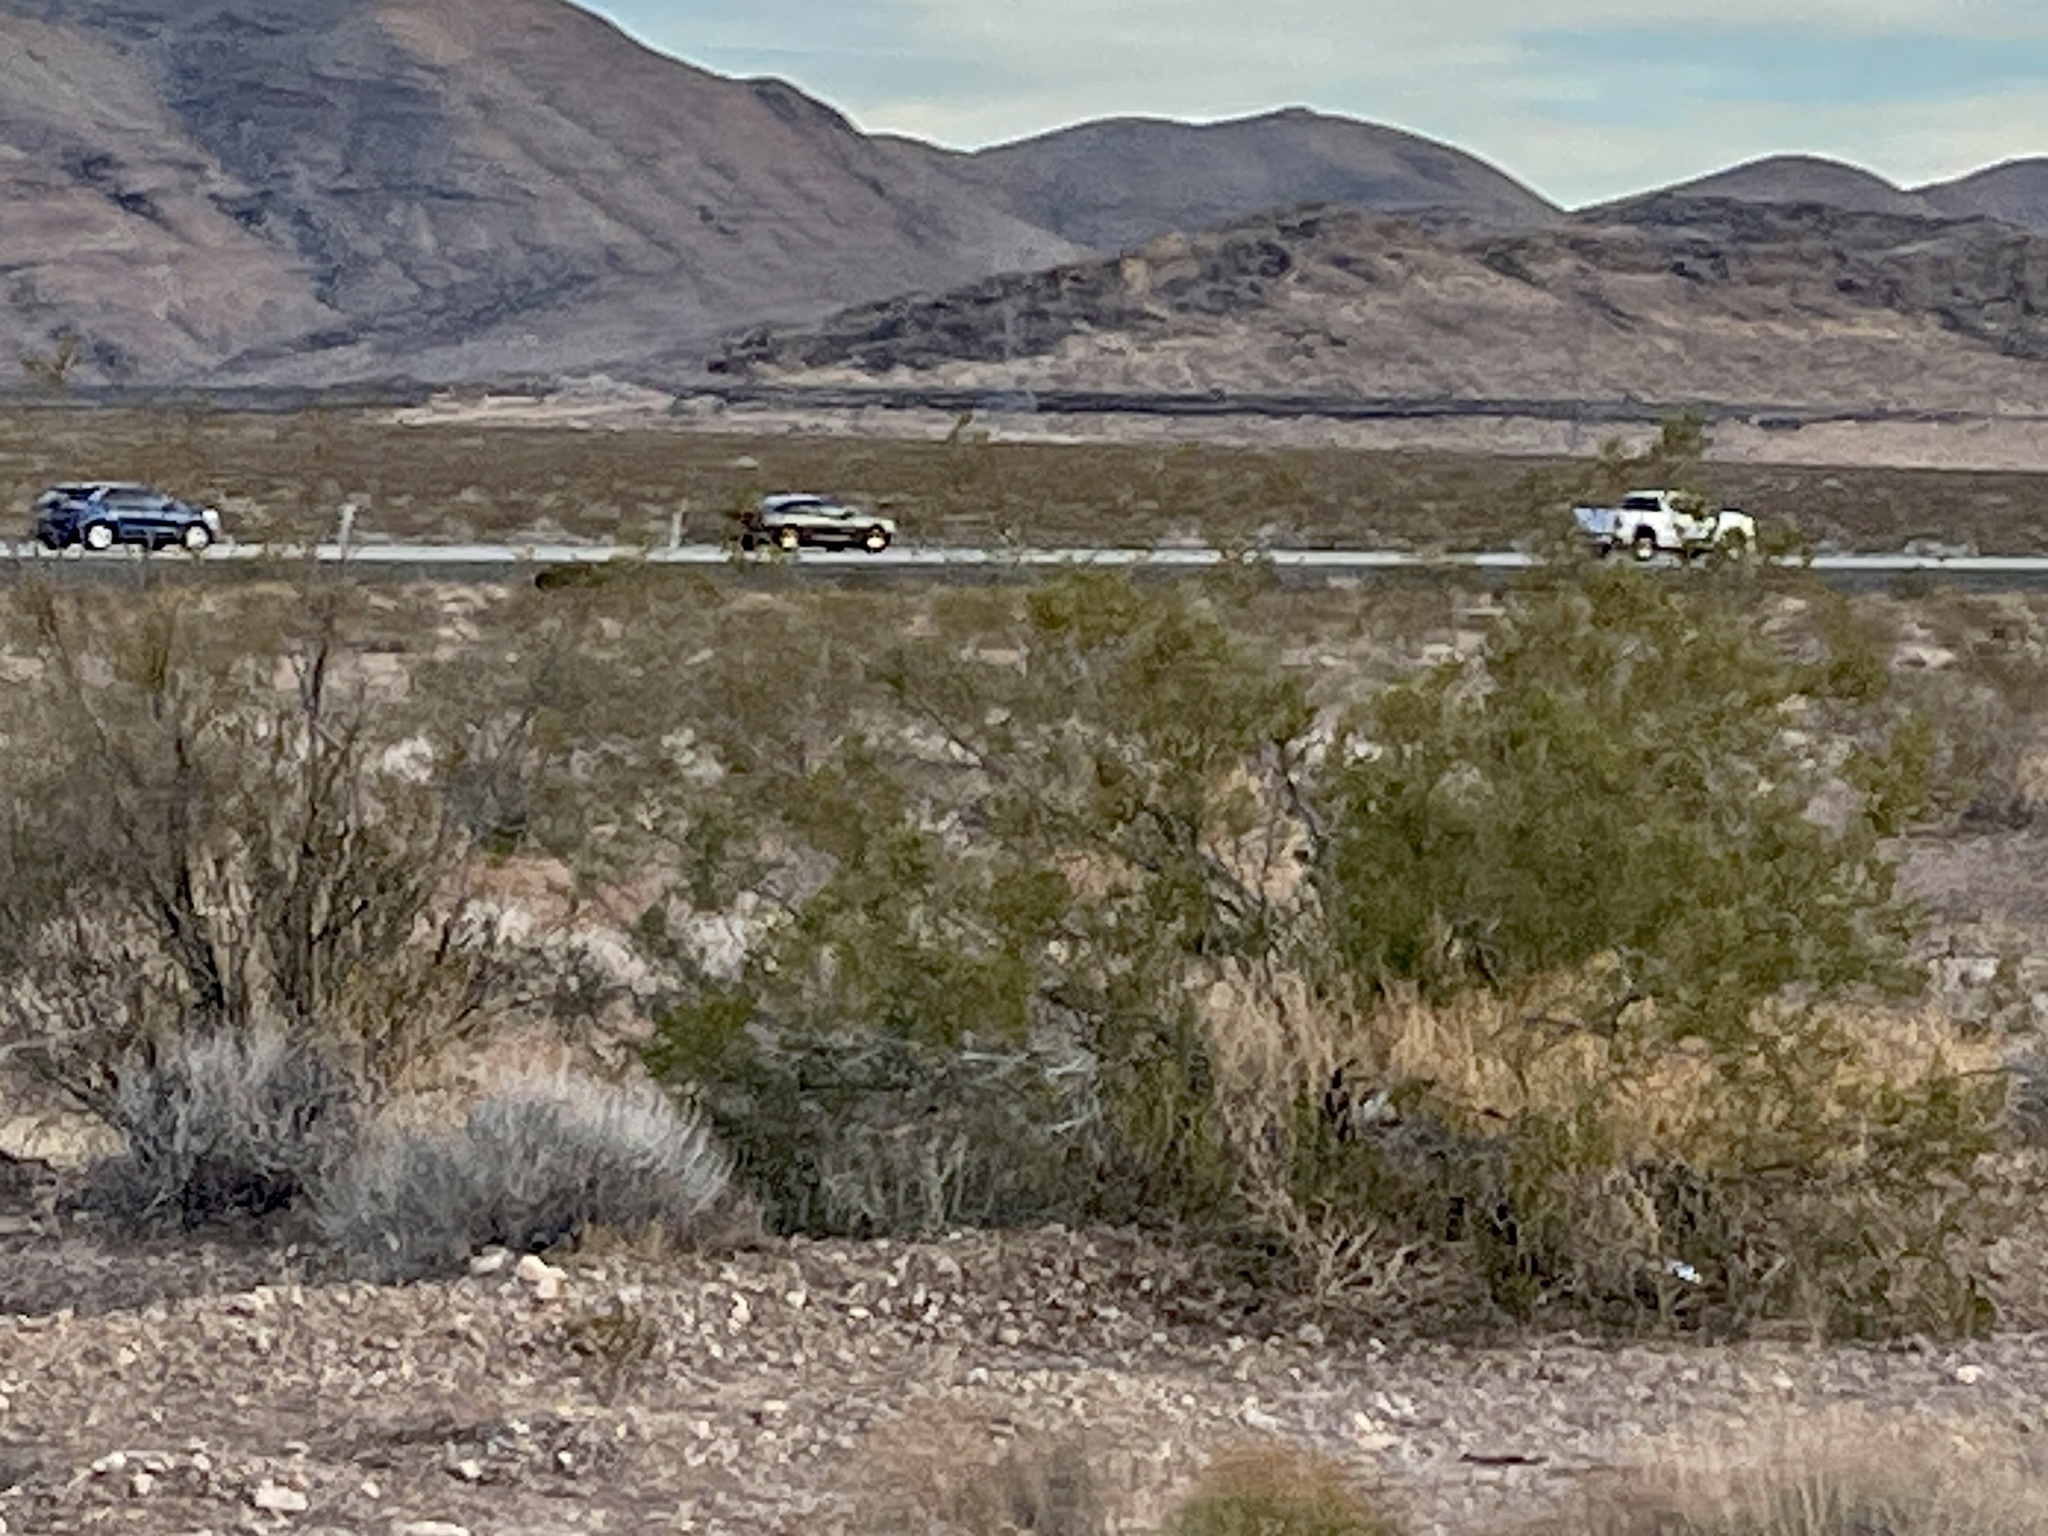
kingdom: Plantae
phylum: Tracheophyta
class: Magnoliopsida
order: Zygophyllales
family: Zygophyllaceae
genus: Larrea
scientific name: Larrea tridentata
